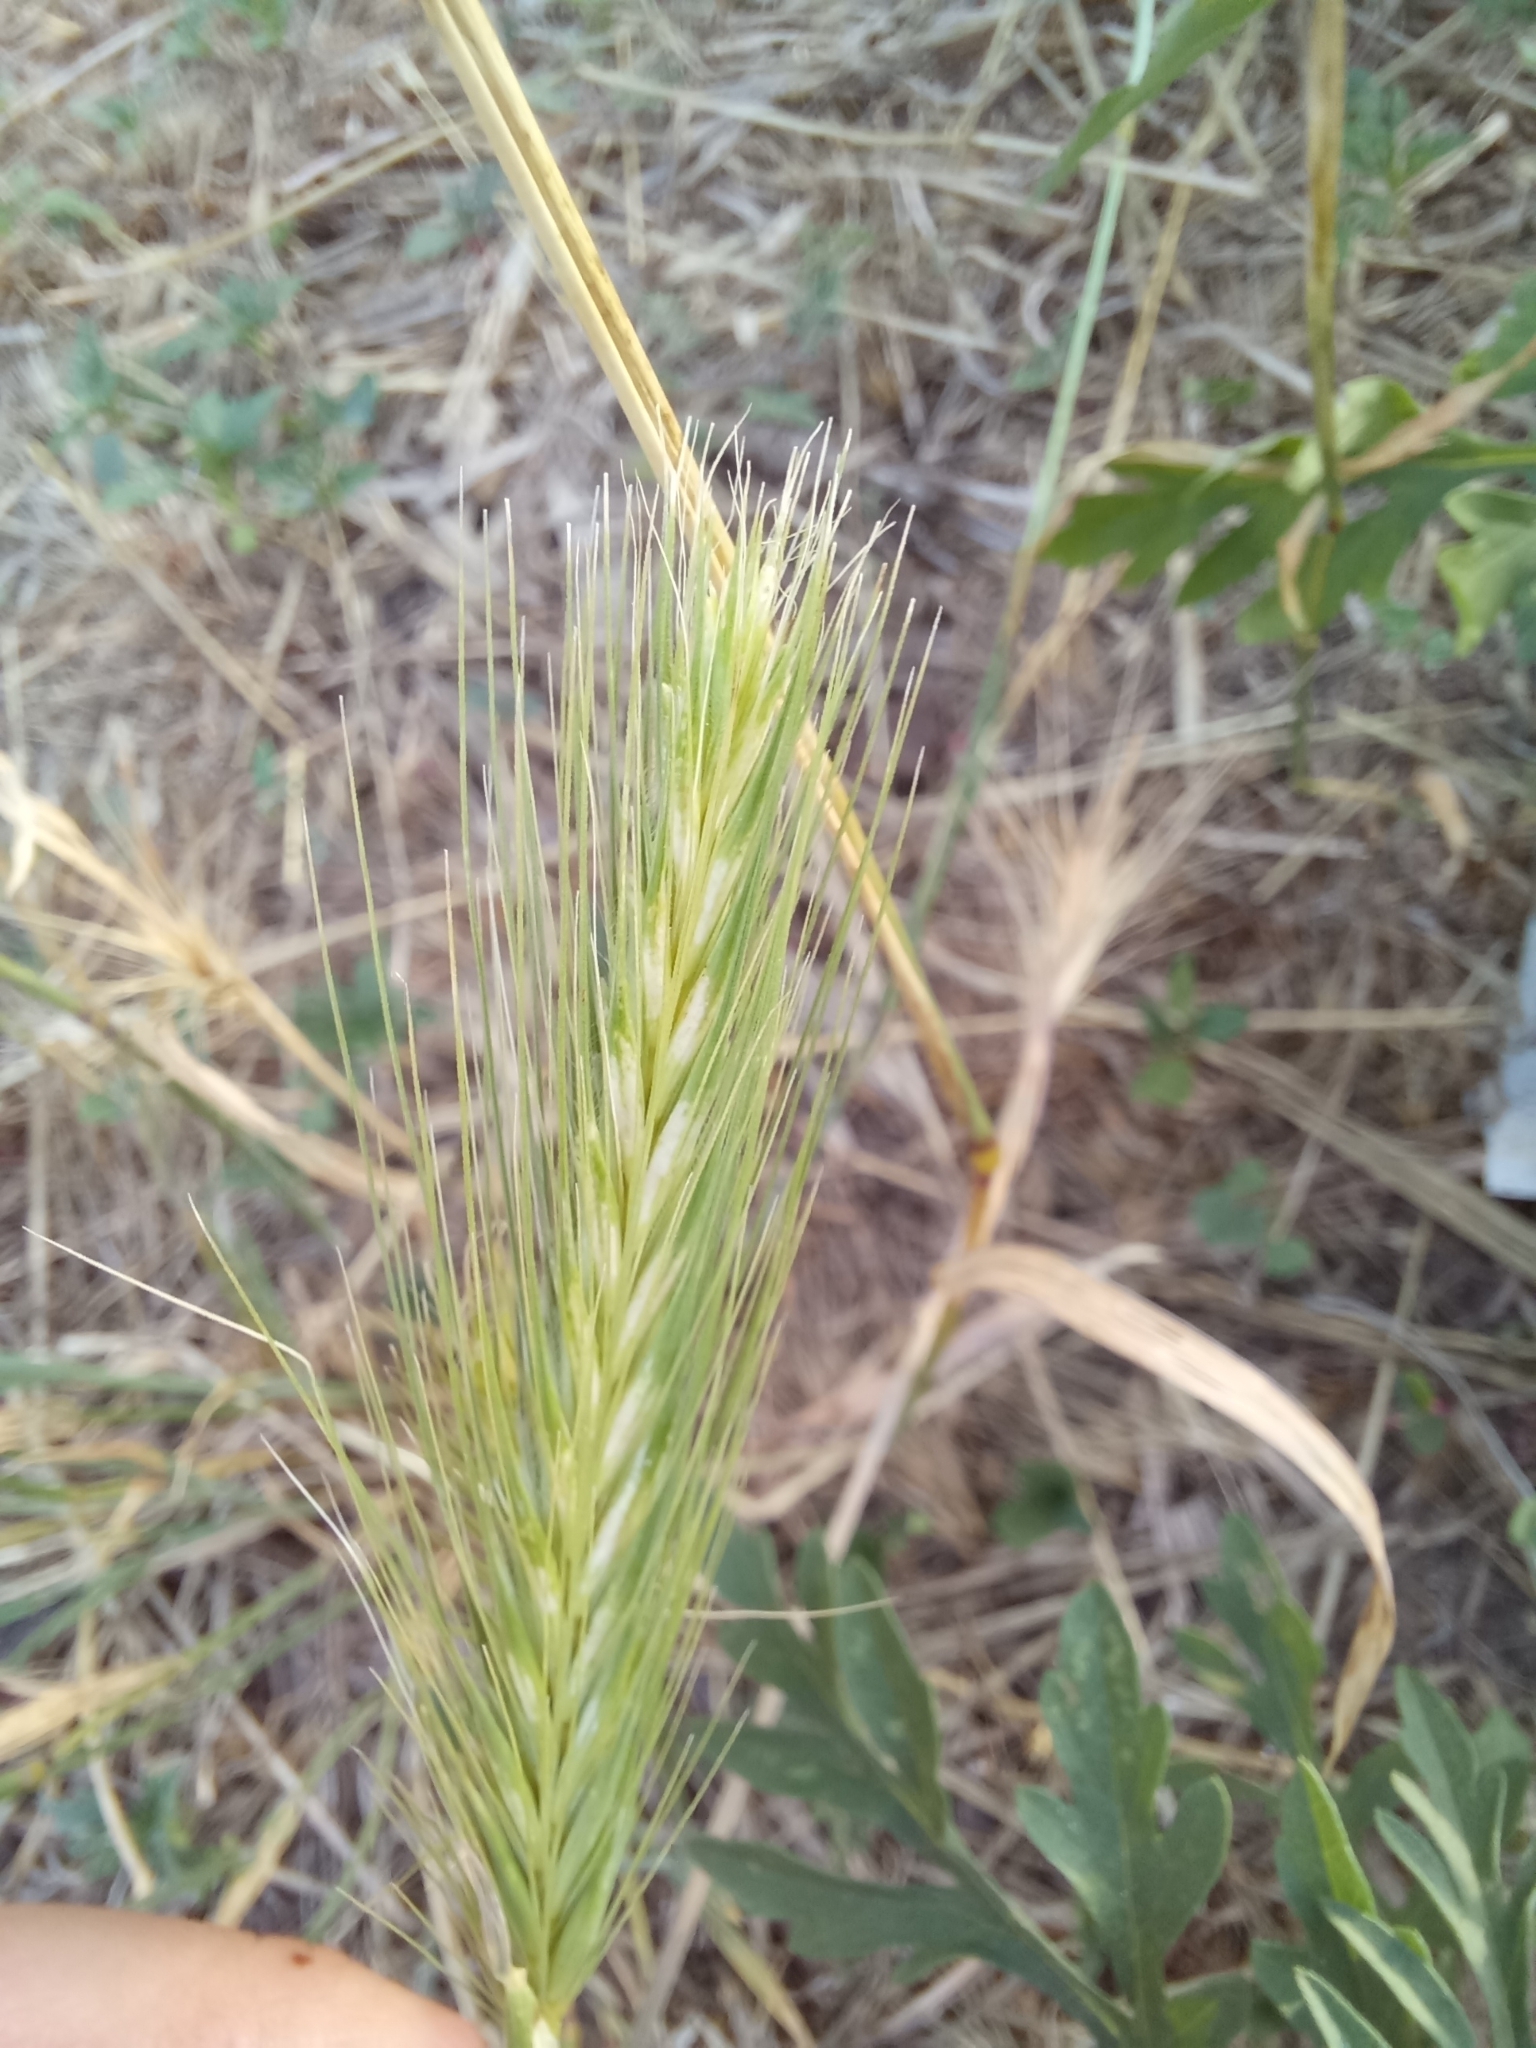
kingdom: Plantae
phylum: Tracheophyta
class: Liliopsida
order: Poales
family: Poaceae
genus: Hordeum
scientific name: Hordeum murinum
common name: Wall barley
